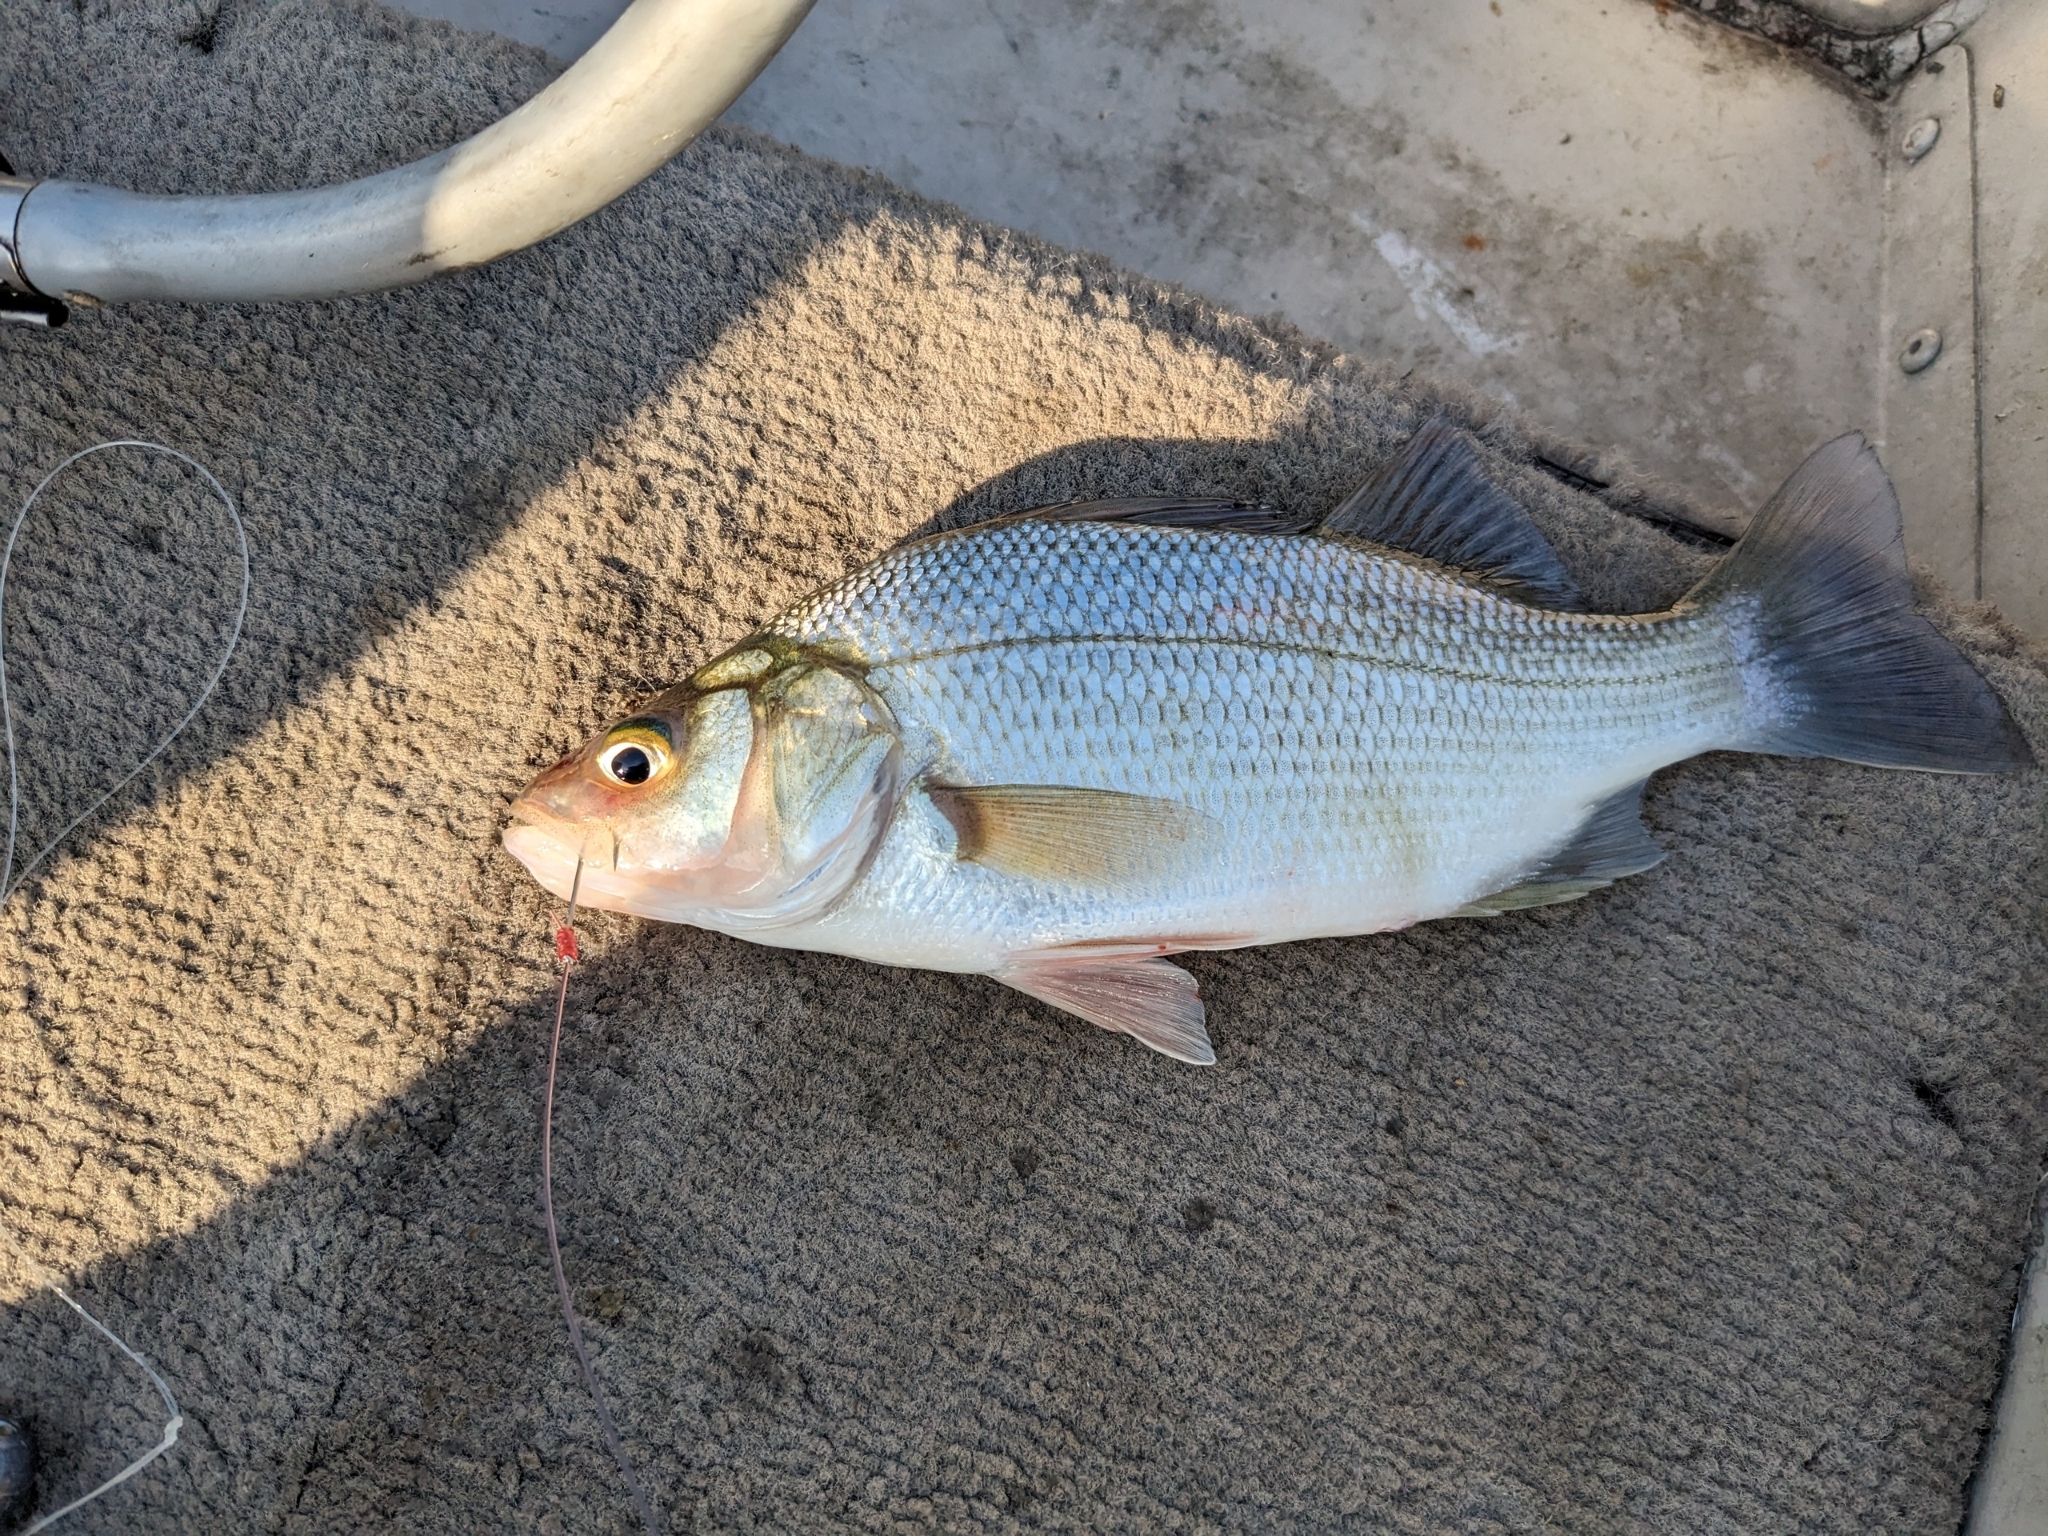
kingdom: Animalia
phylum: Chordata
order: Perciformes
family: Moronidae
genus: Morone
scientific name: Morone americana
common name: White perch
